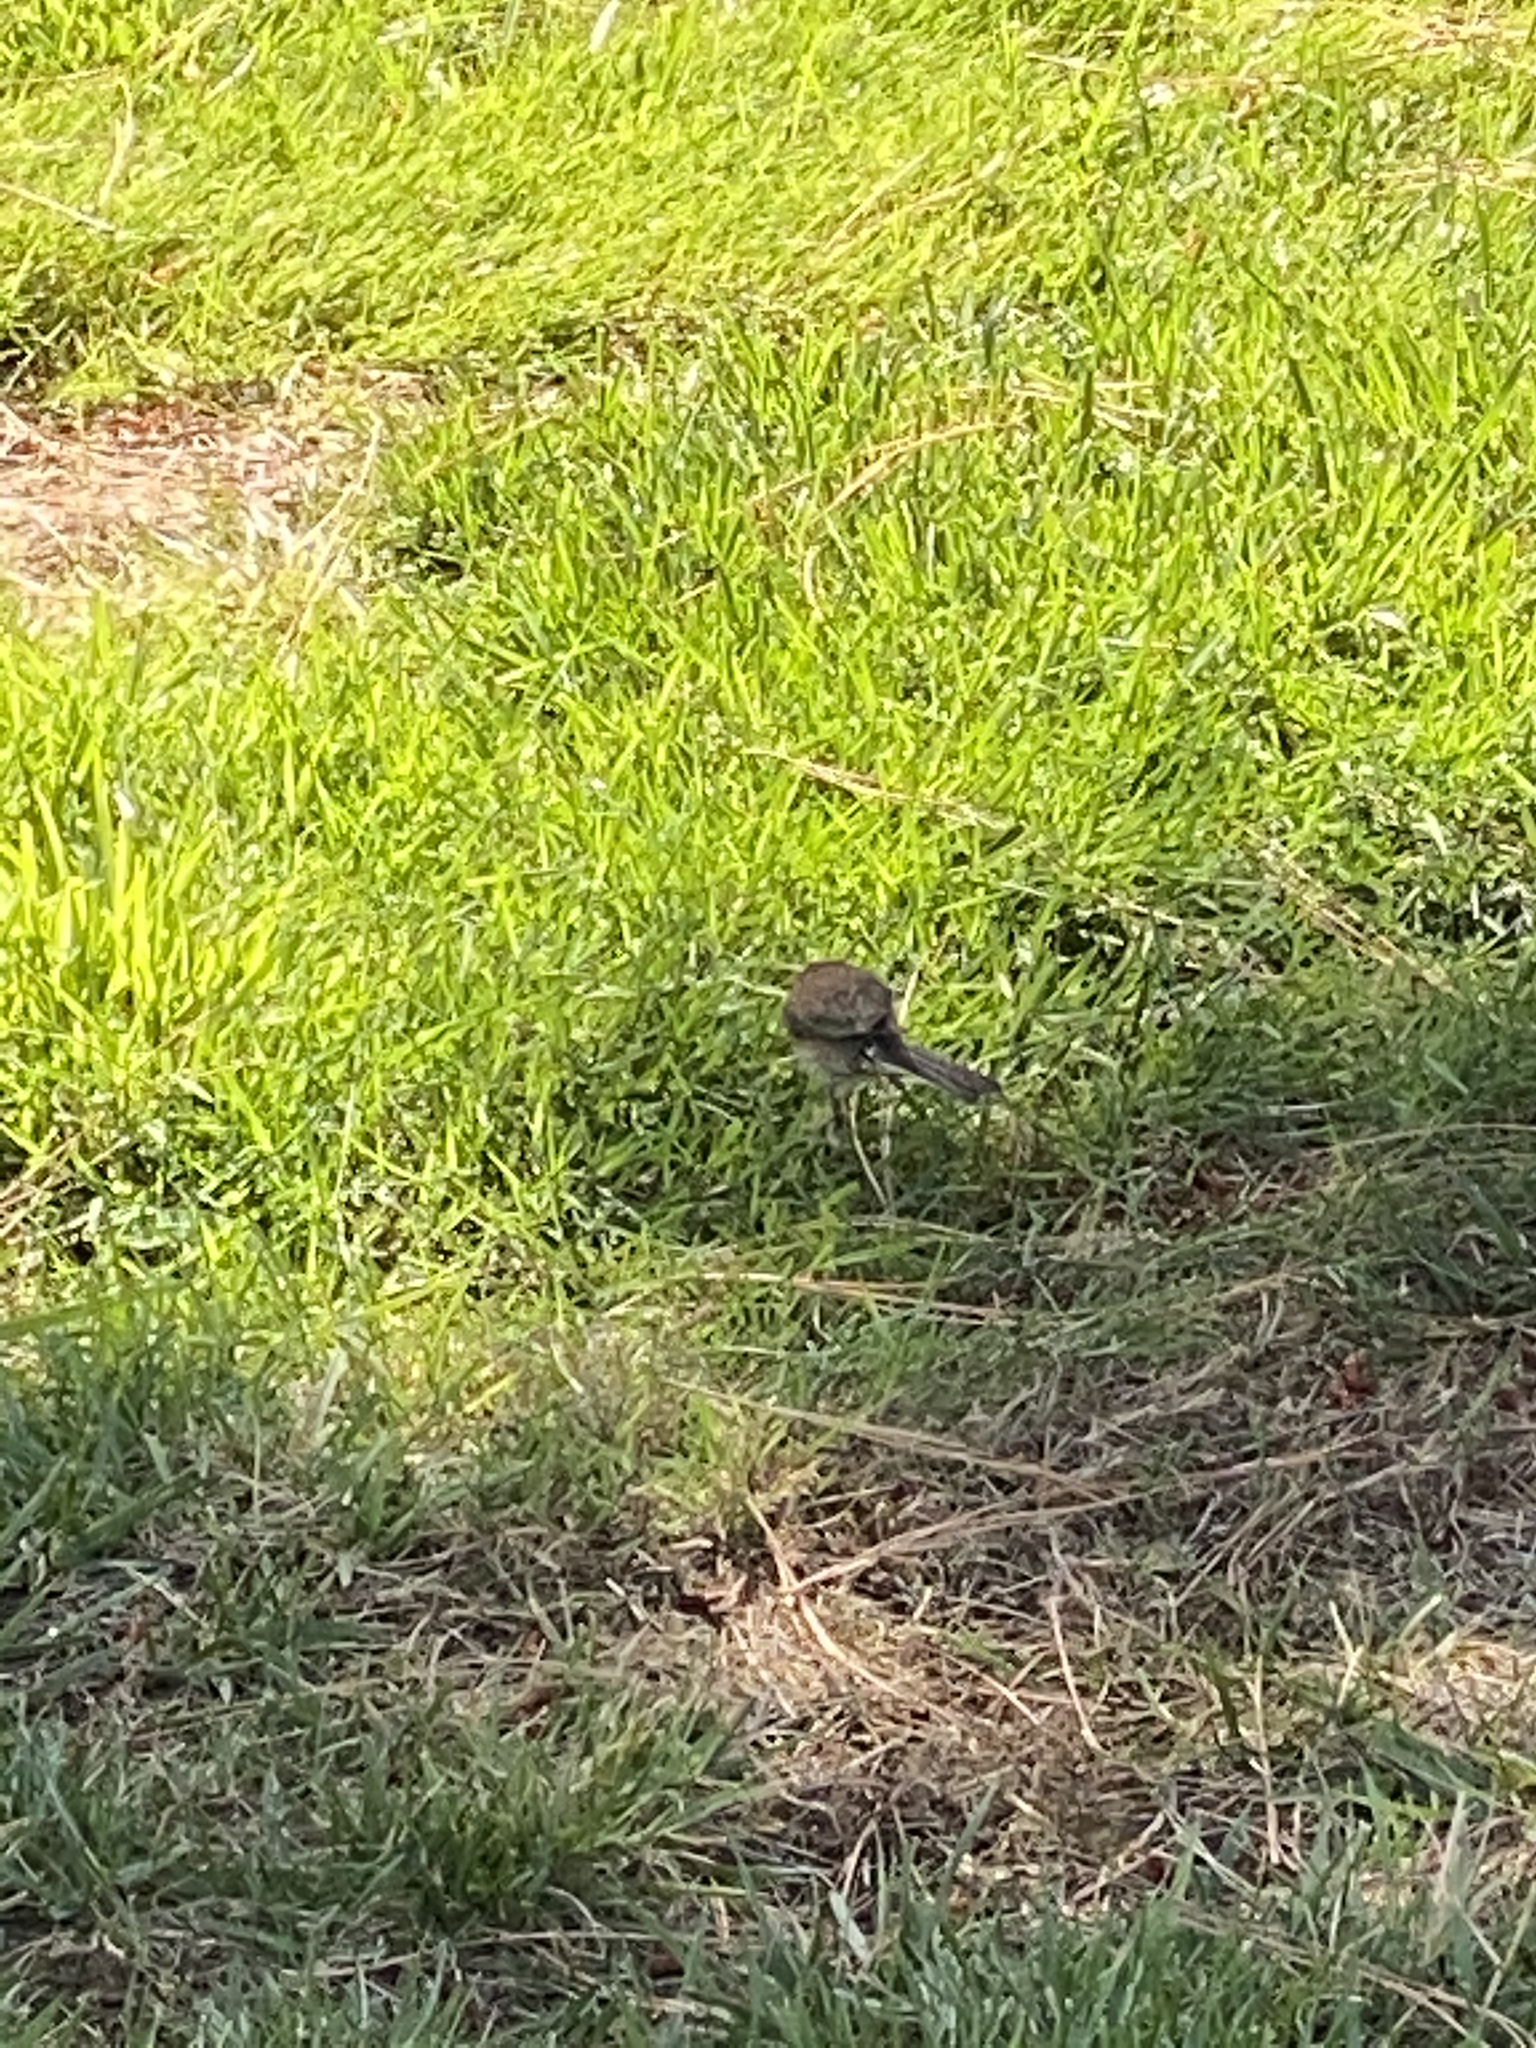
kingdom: Animalia
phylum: Chordata
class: Aves
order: Passeriformes
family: Passerellidae
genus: Junco
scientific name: Junco hyemalis
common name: Dark-eyed junco
